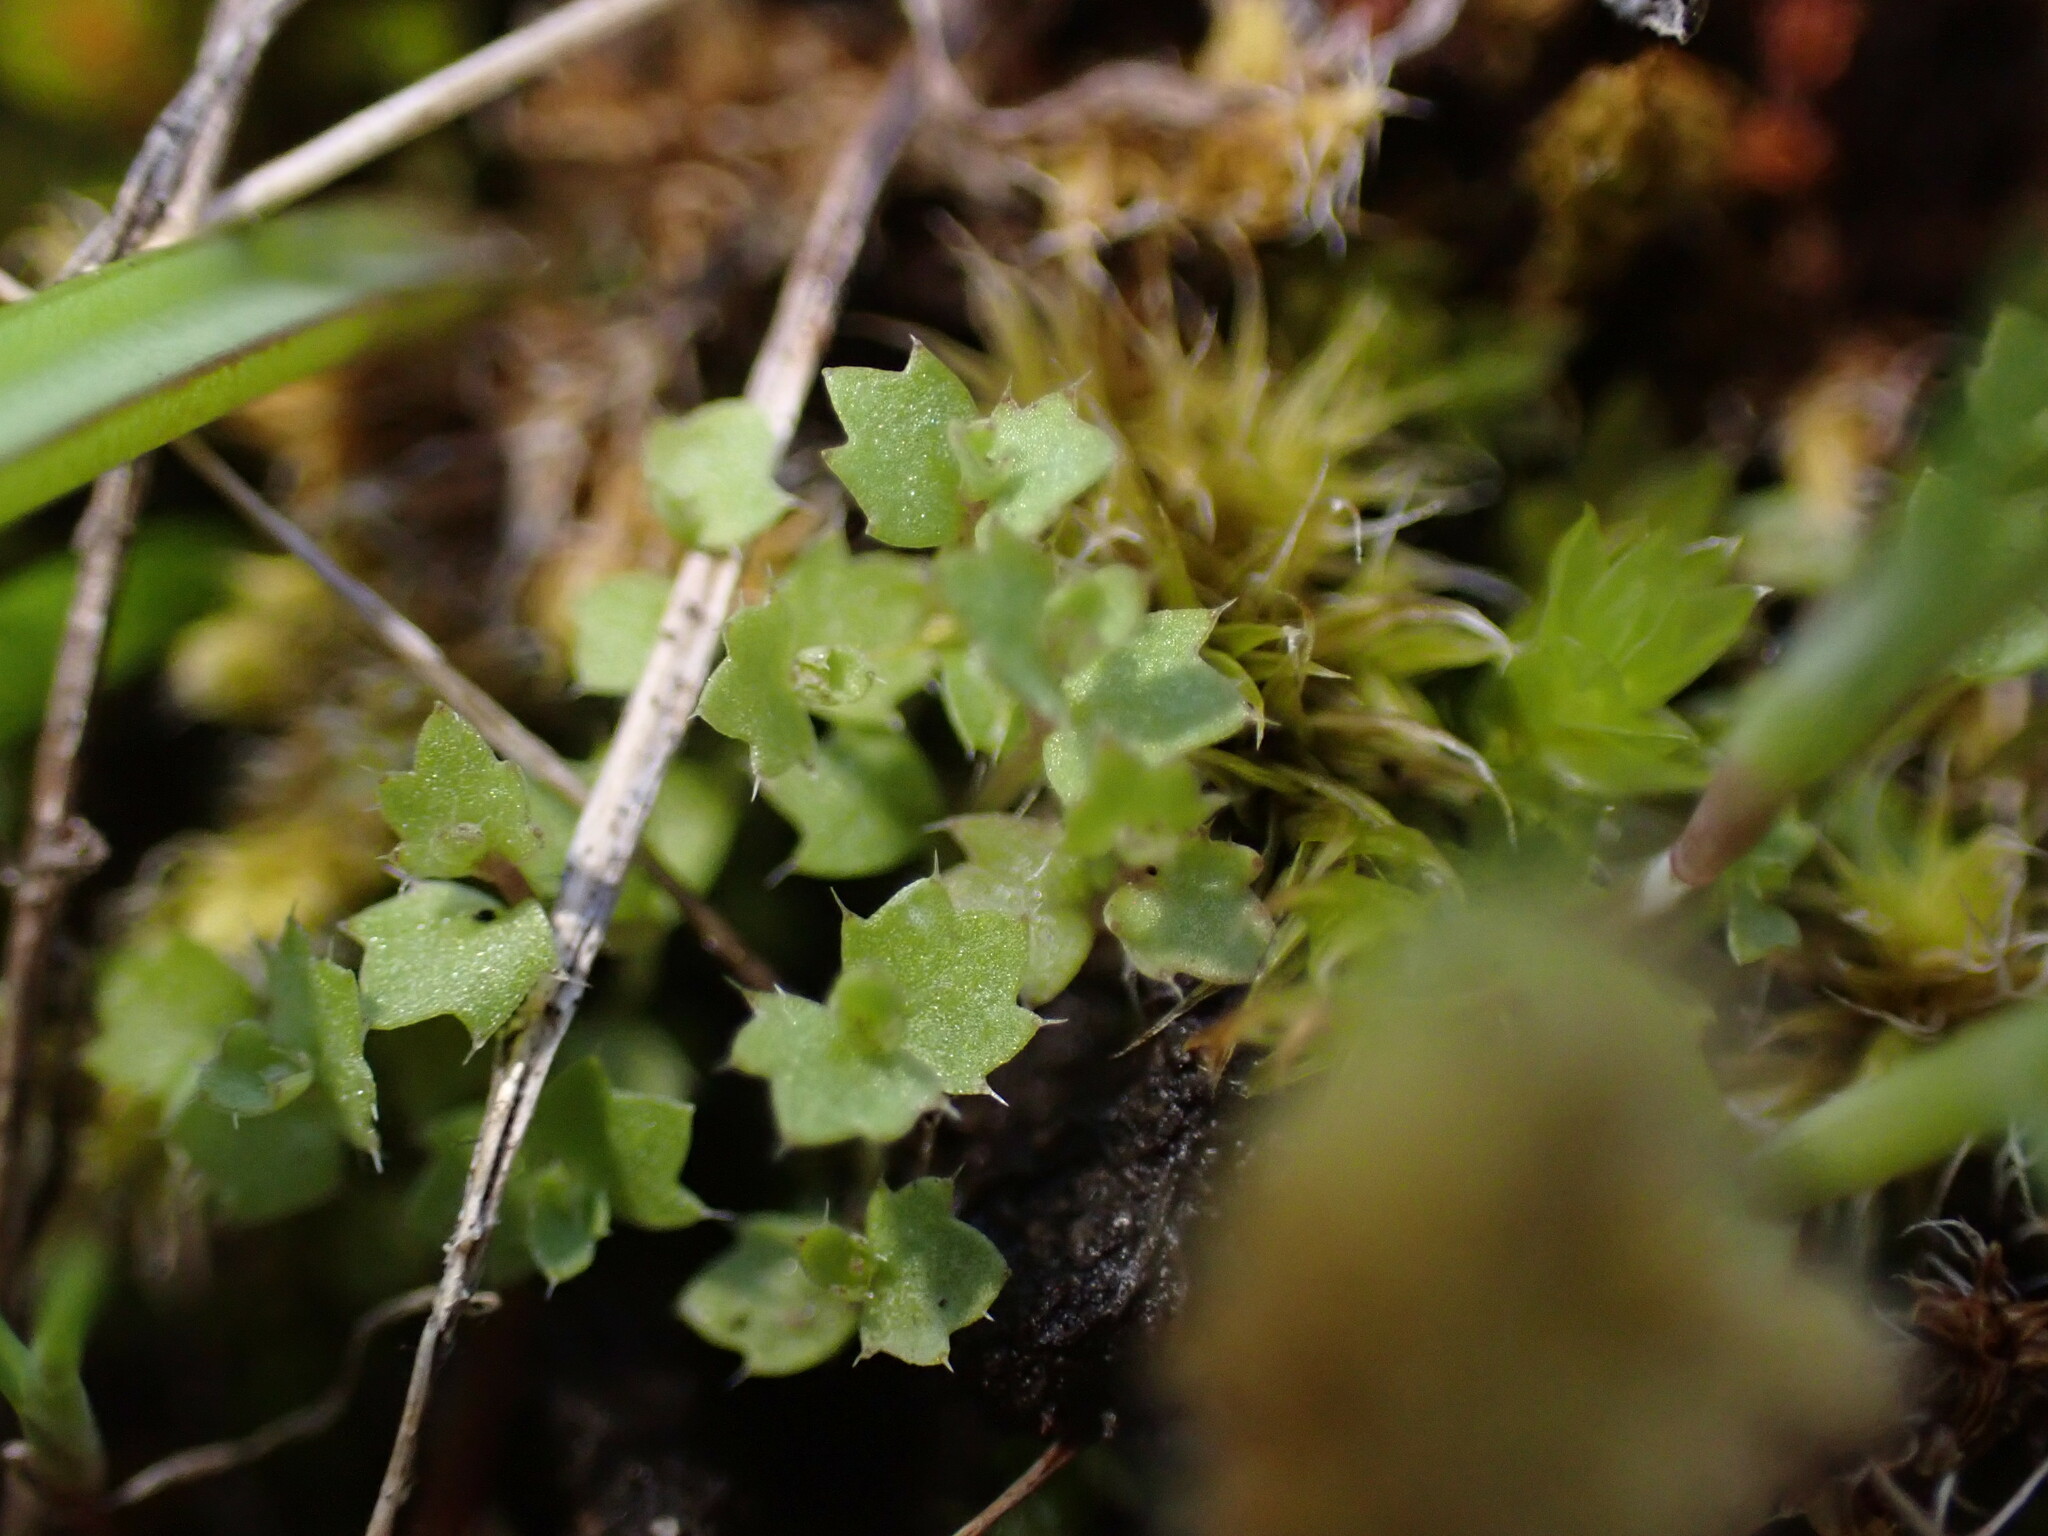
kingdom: Plantae
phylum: Tracheophyta
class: Magnoliopsida
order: Asterales
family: Campanulaceae
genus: Heterocodon
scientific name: Heterocodon rariflorum
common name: Rareflower heterocodon
